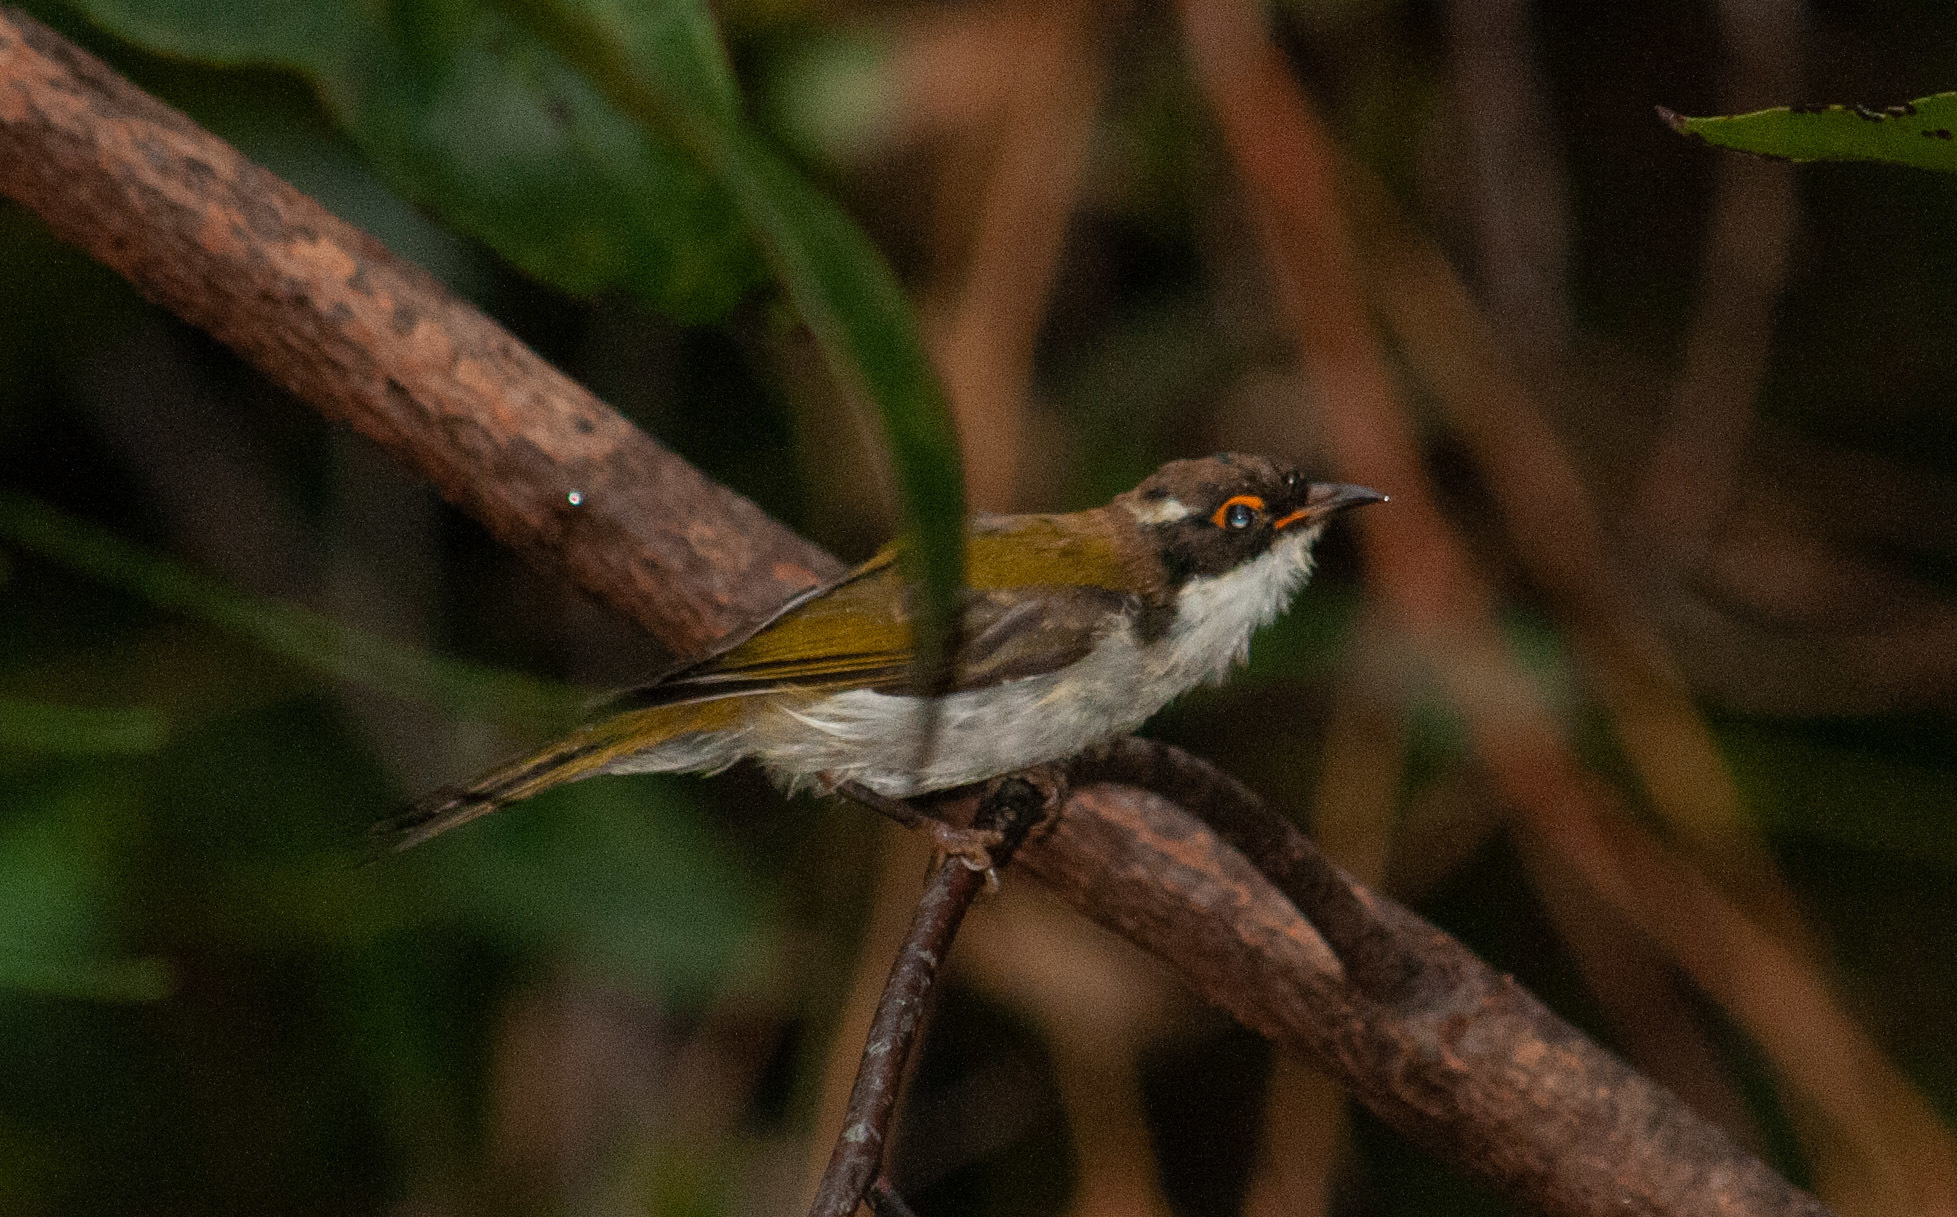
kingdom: Animalia
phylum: Chordata
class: Aves
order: Passeriformes
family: Meliphagidae
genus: Melithreptus
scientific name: Melithreptus lunatus
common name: White-naped honeyeater
